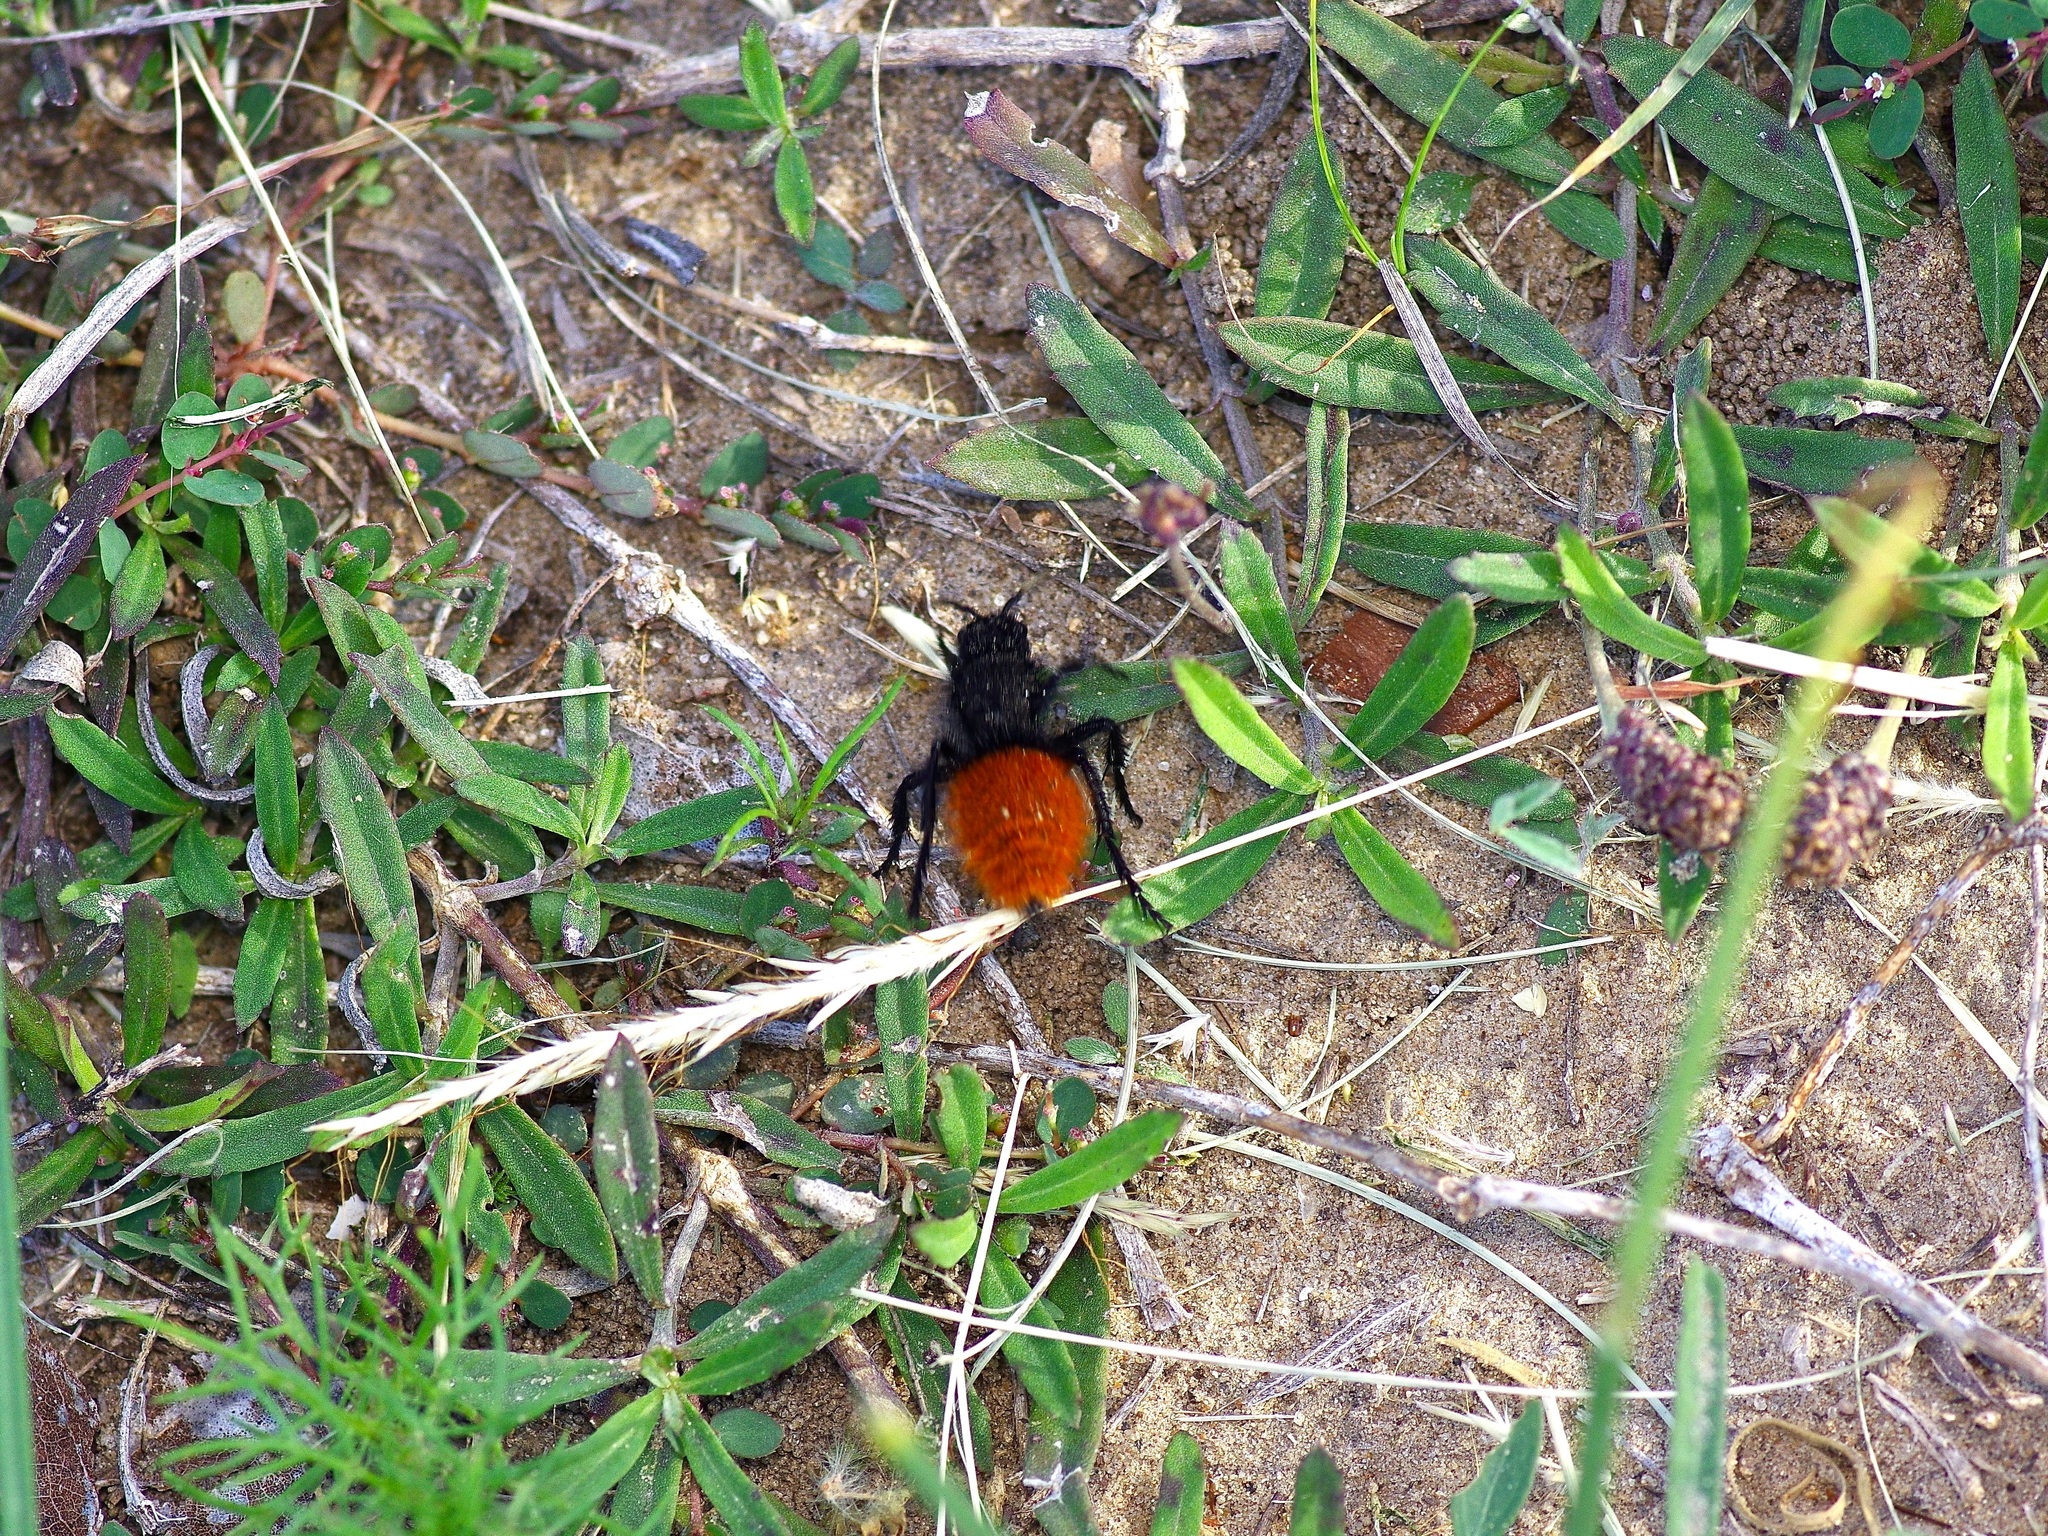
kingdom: Animalia
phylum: Arthropoda
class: Insecta
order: Hymenoptera
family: Mutillidae
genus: Dasymutilla
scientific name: Dasymutilla
